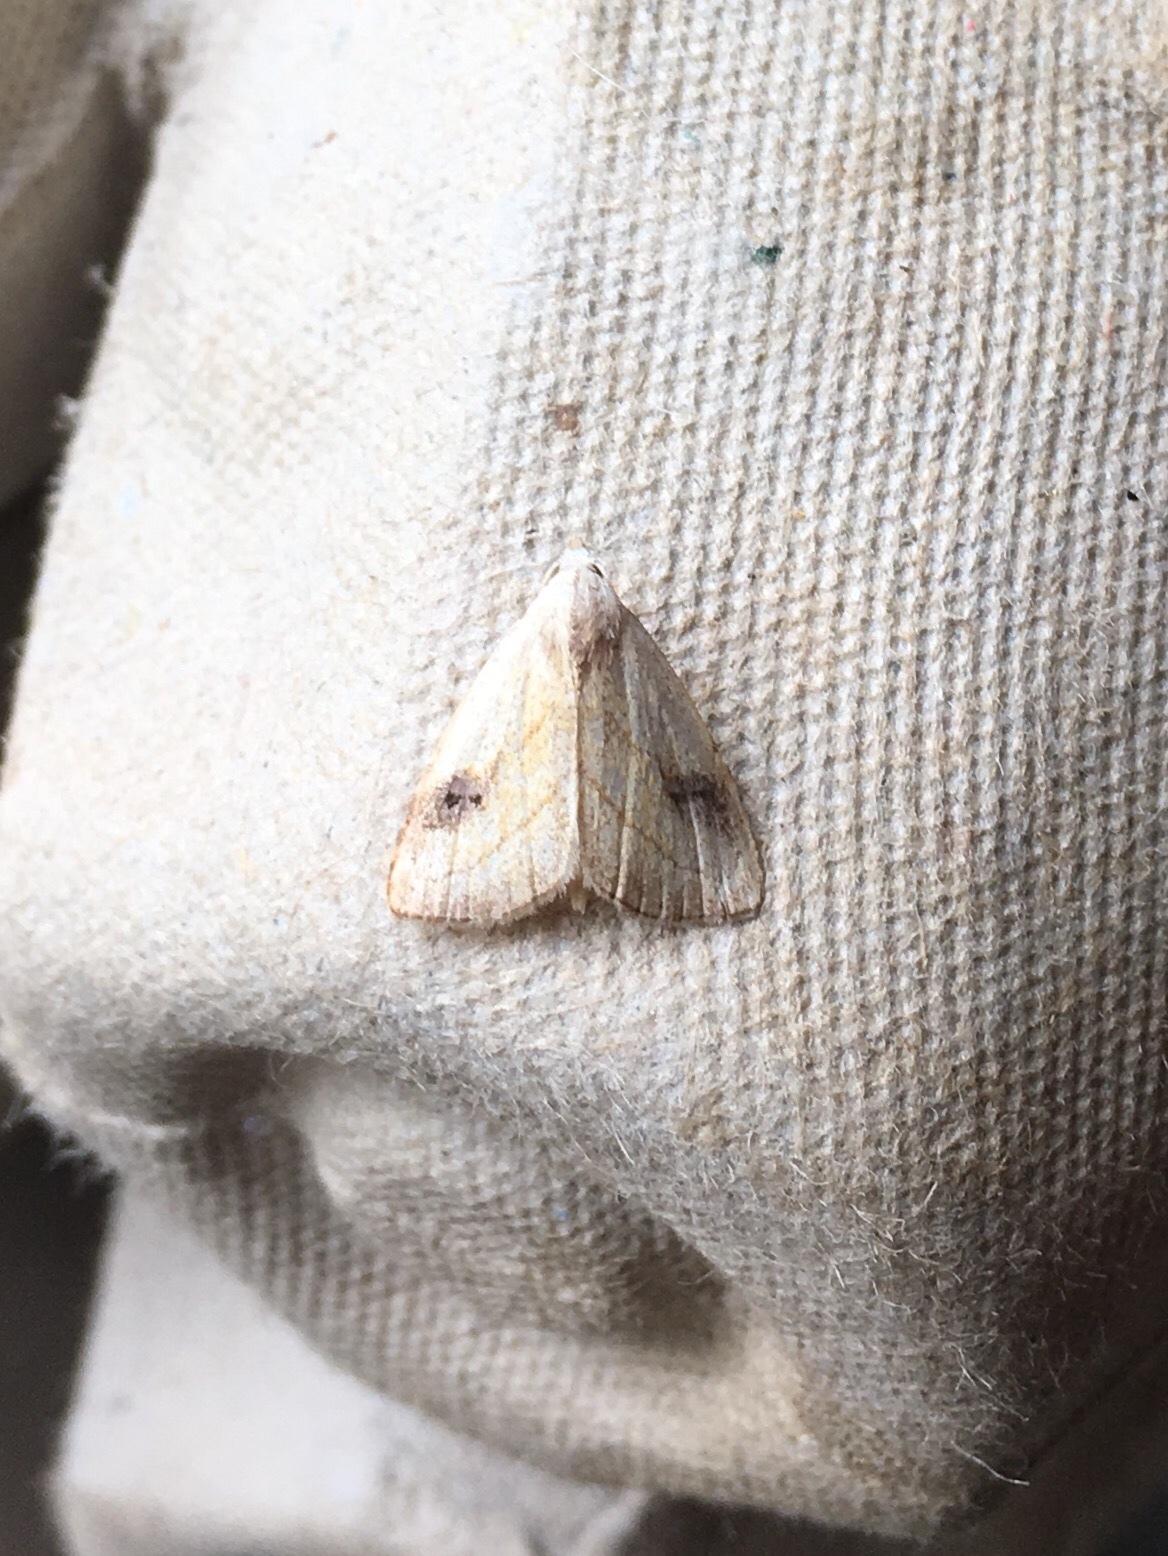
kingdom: Animalia
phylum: Arthropoda
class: Insecta
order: Lepidoptera
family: Erebidae
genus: Rivula
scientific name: Rivula propinqualis
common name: Spotted grass moth
